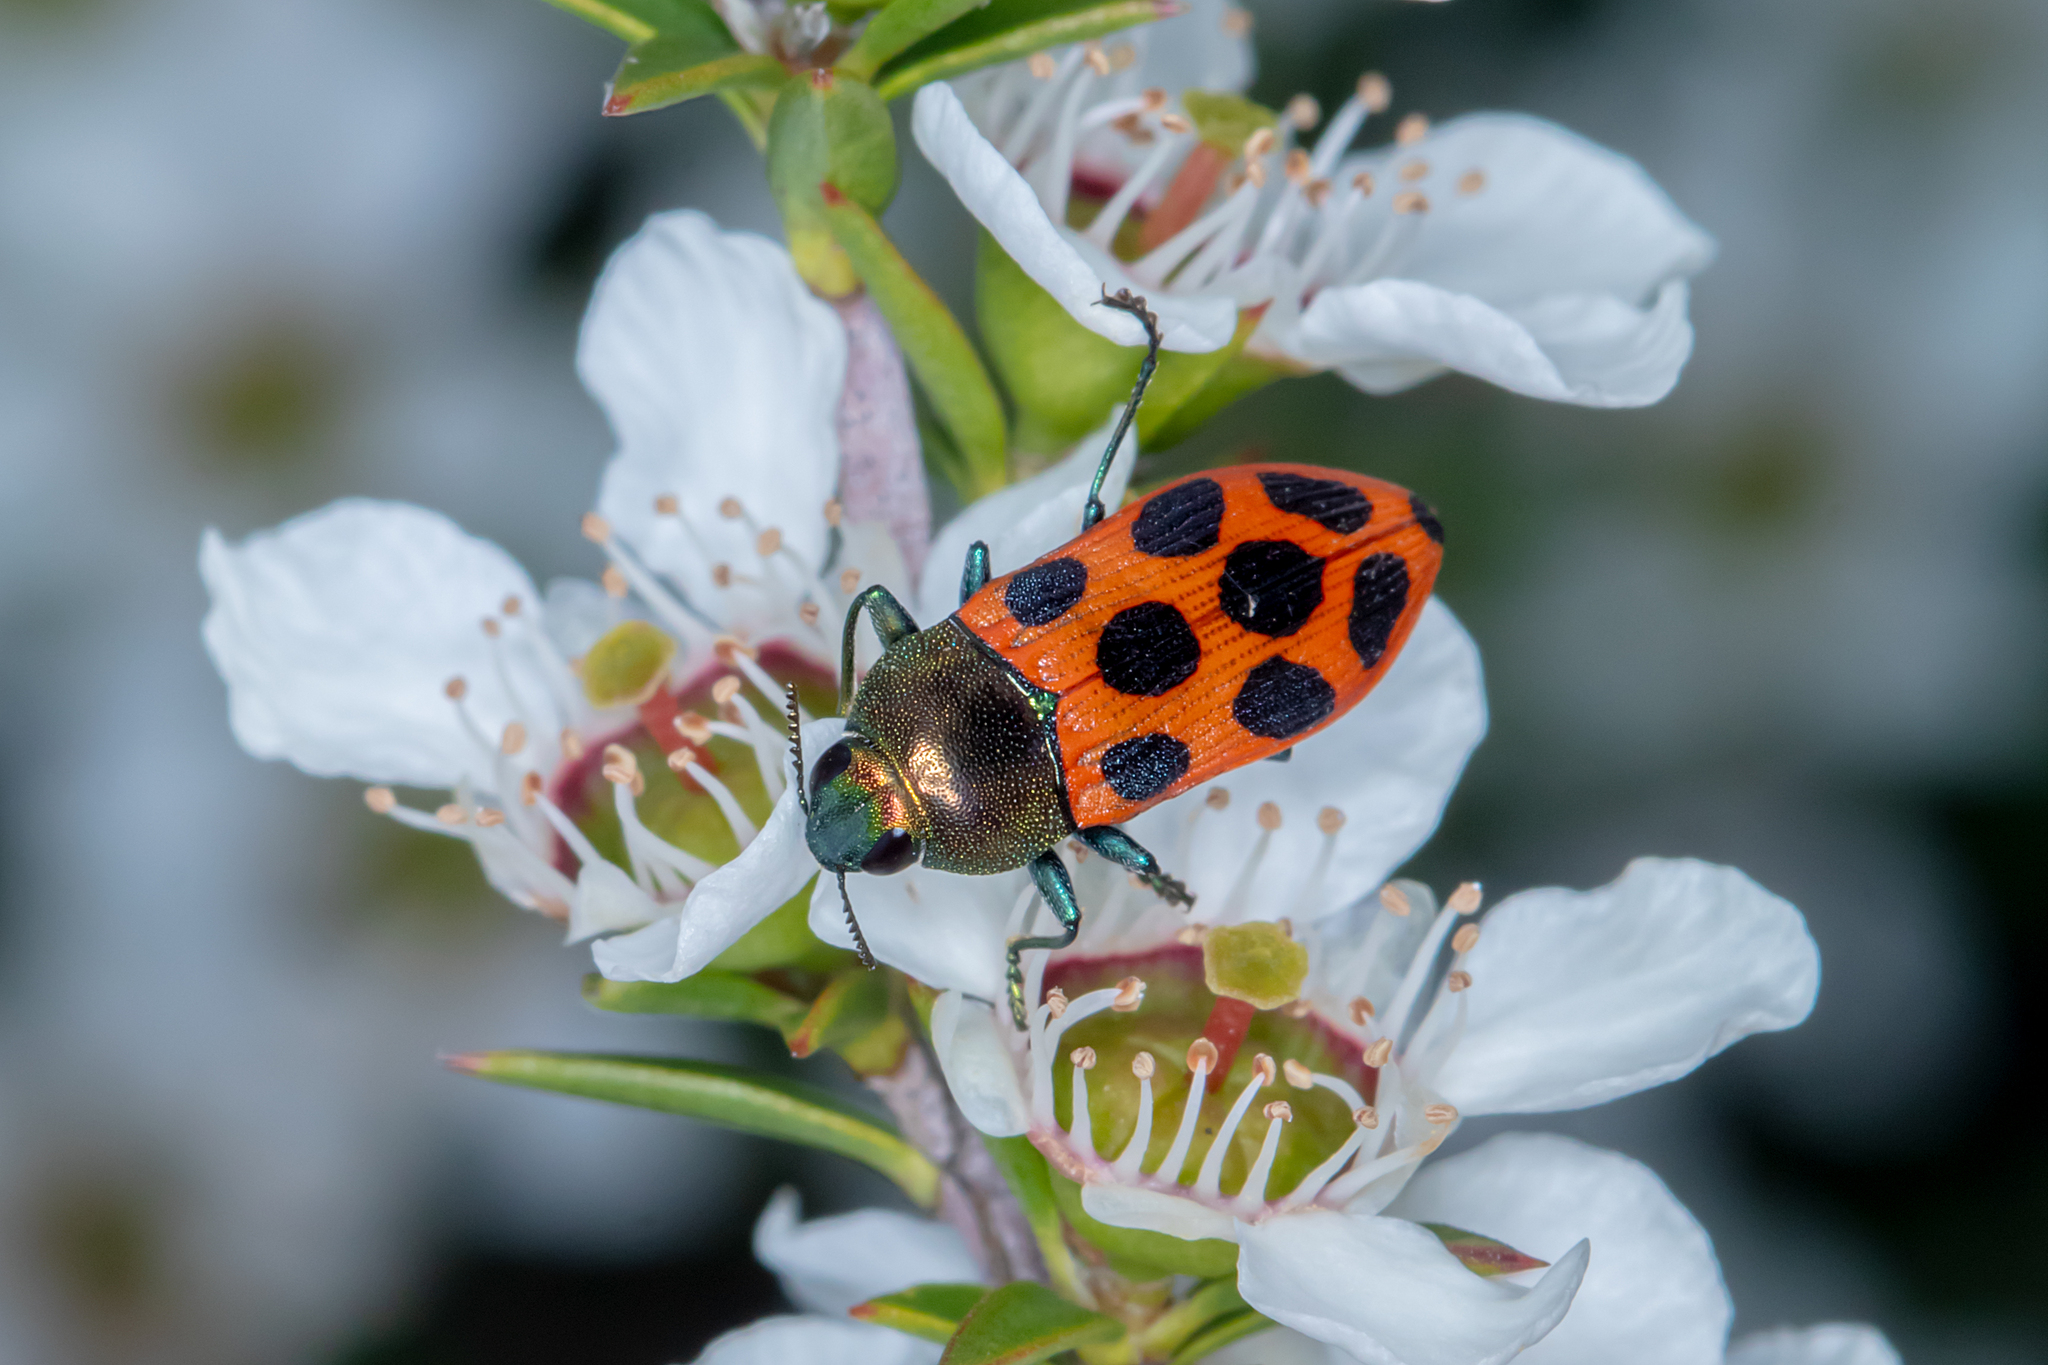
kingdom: Animalia
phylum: Arthropoda
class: Insecta
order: Coleoptera
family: Buprestidae
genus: Castiarina
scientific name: Castiarina octomaculata
